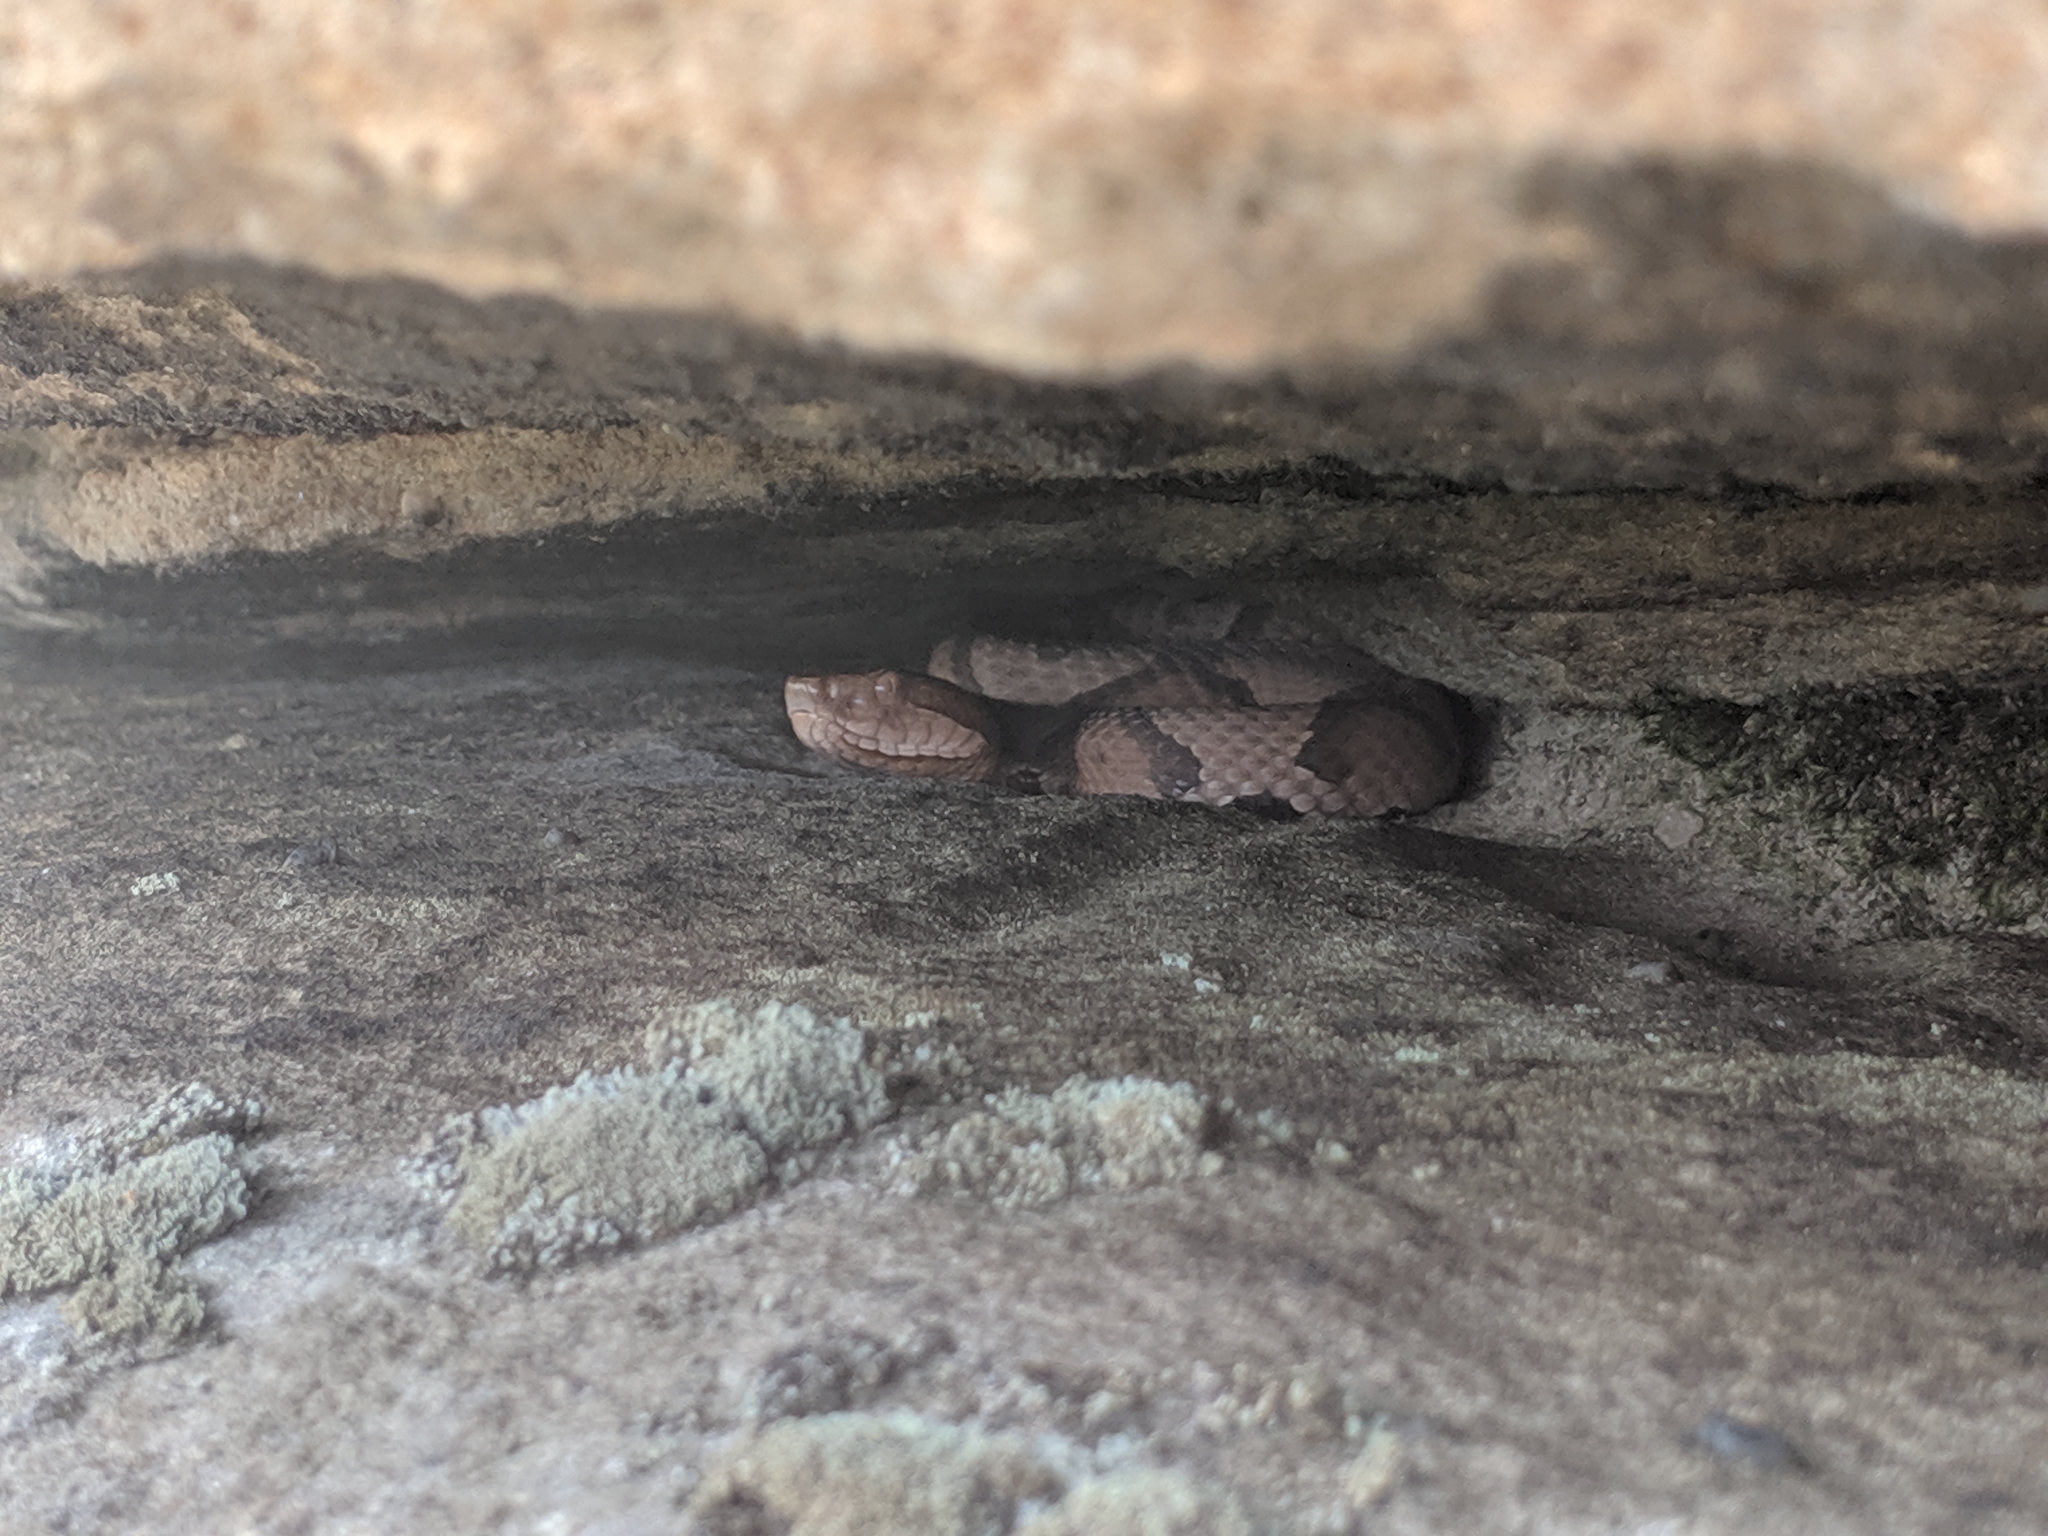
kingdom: Animalia
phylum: Chordata
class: Squamata
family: Viperidae
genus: Agkistrodon
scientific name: Agkistrodon contortrix
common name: Northern copperhead
